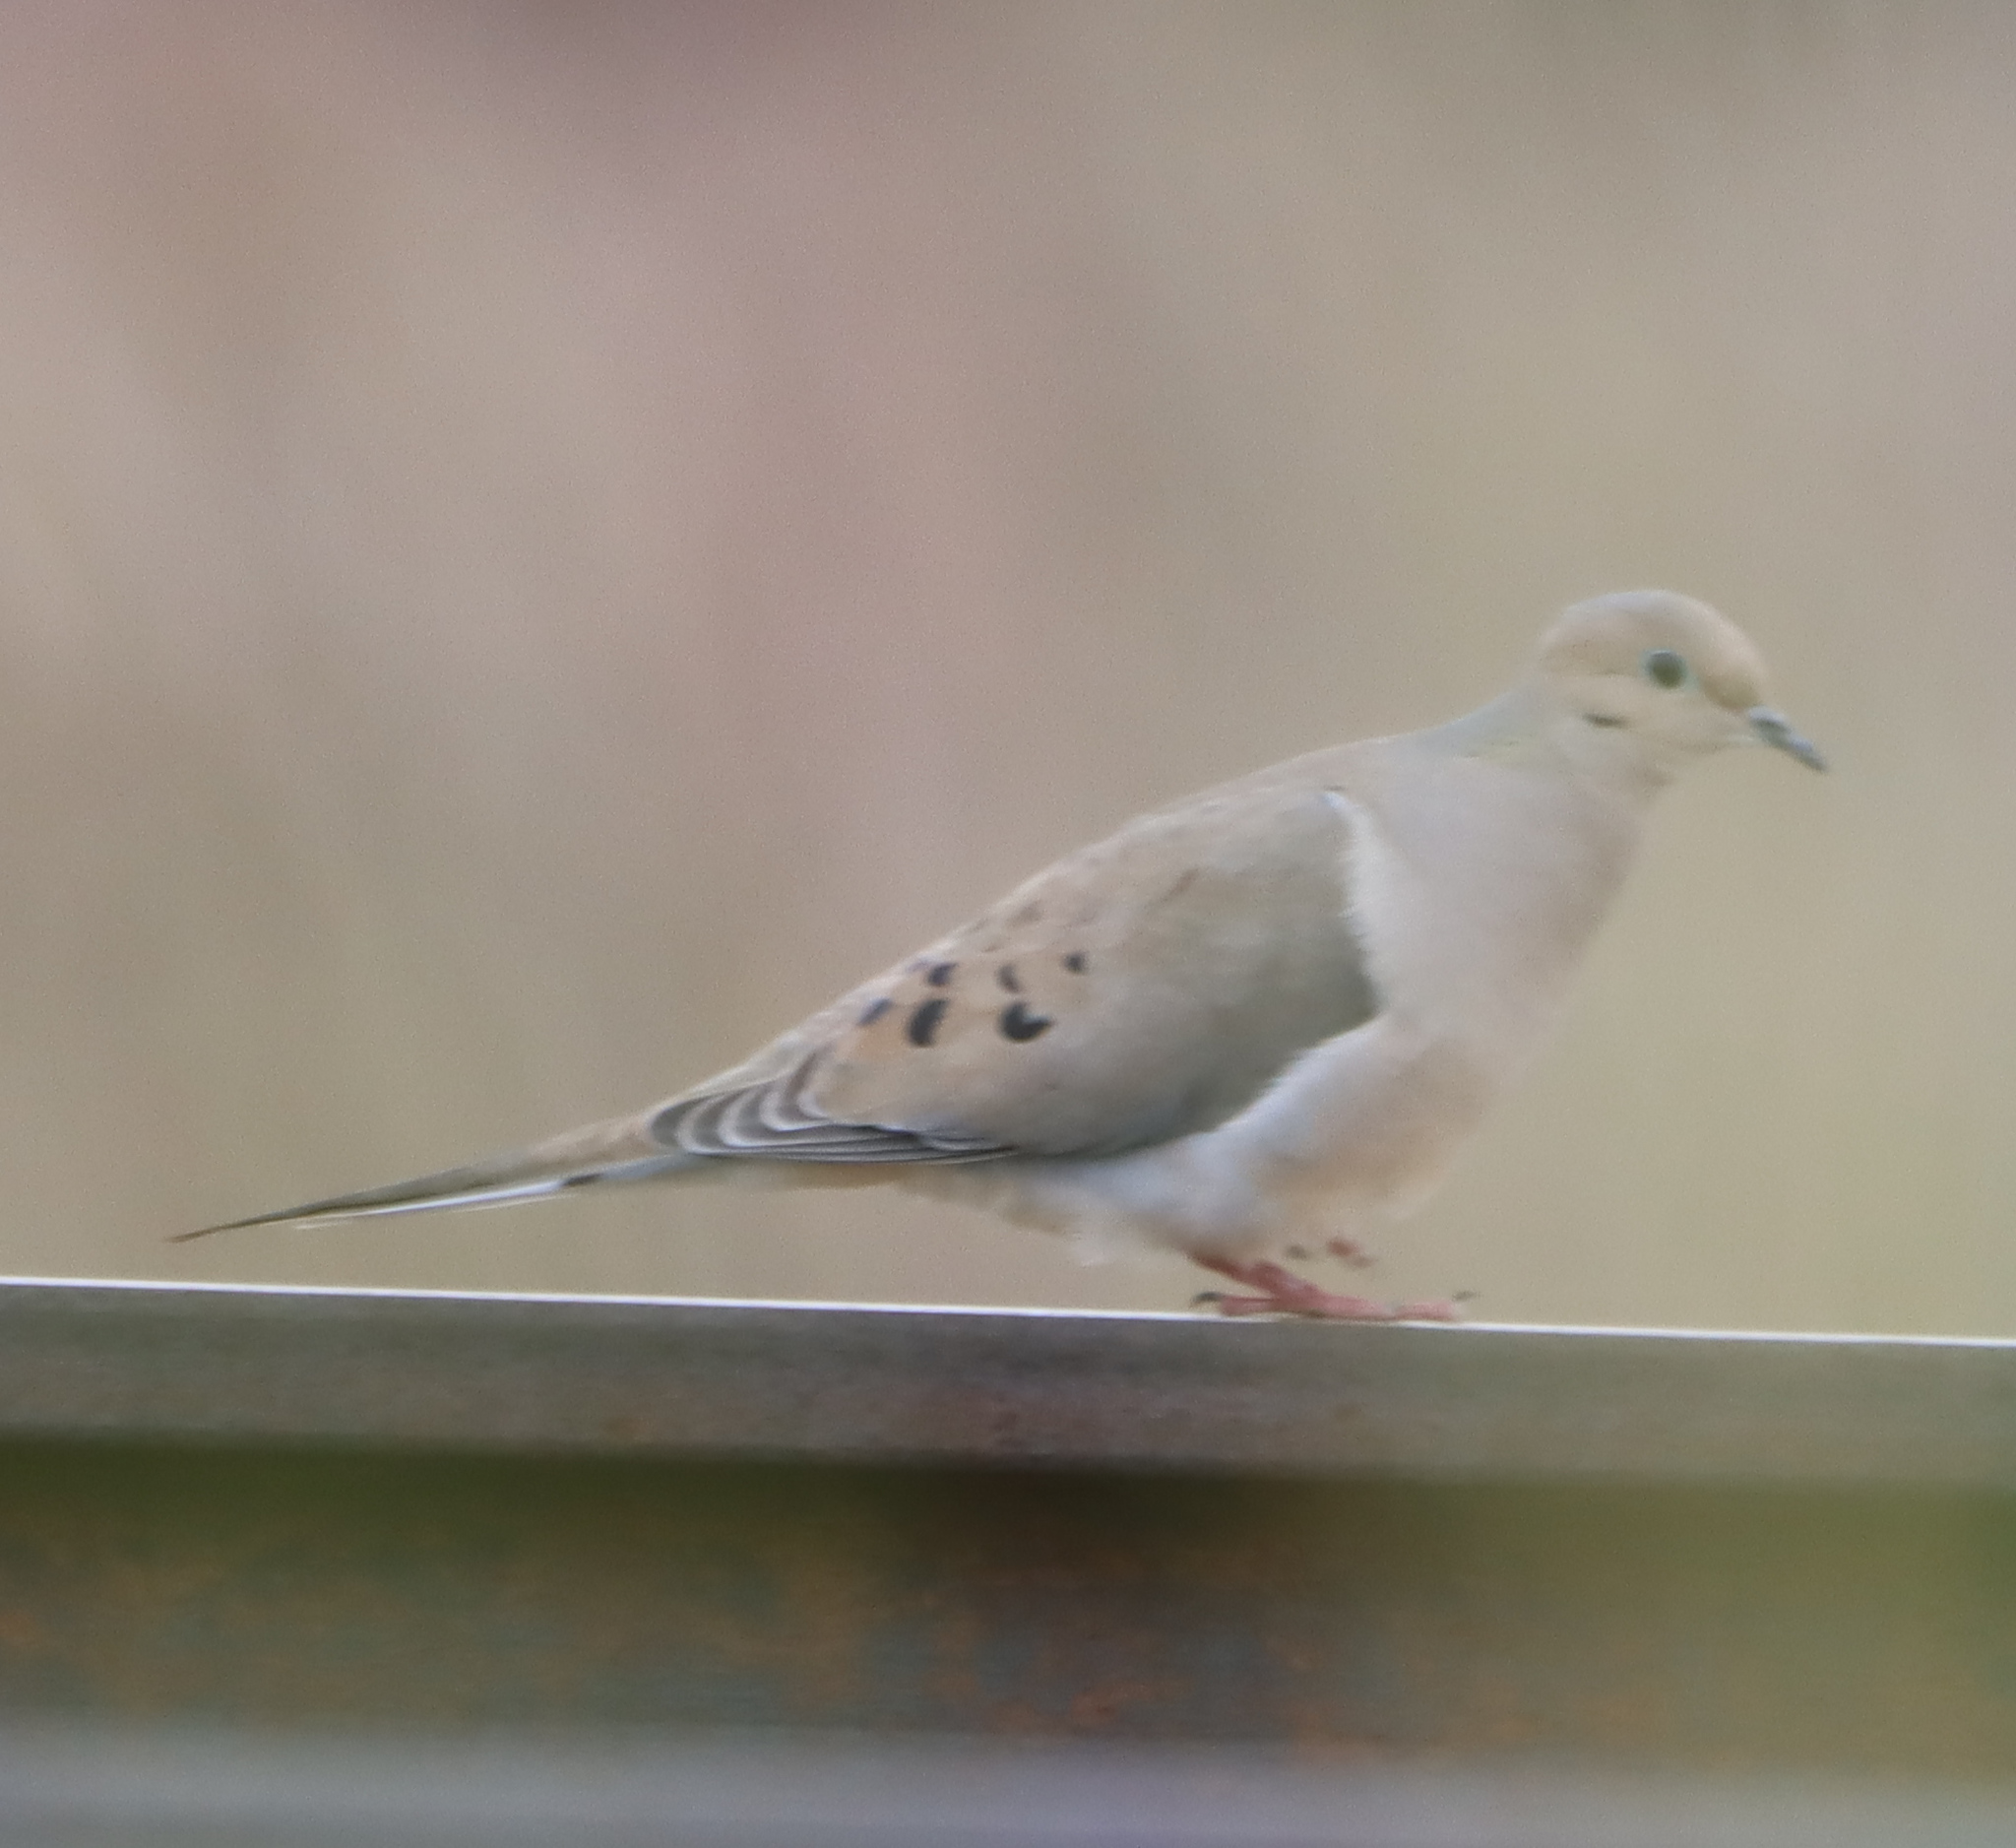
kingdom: Animalia
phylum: Chordata
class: Aves
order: Columbiformes
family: Columbidae
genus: Zenaida
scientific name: Zenaida macroura
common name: Mourning dove
